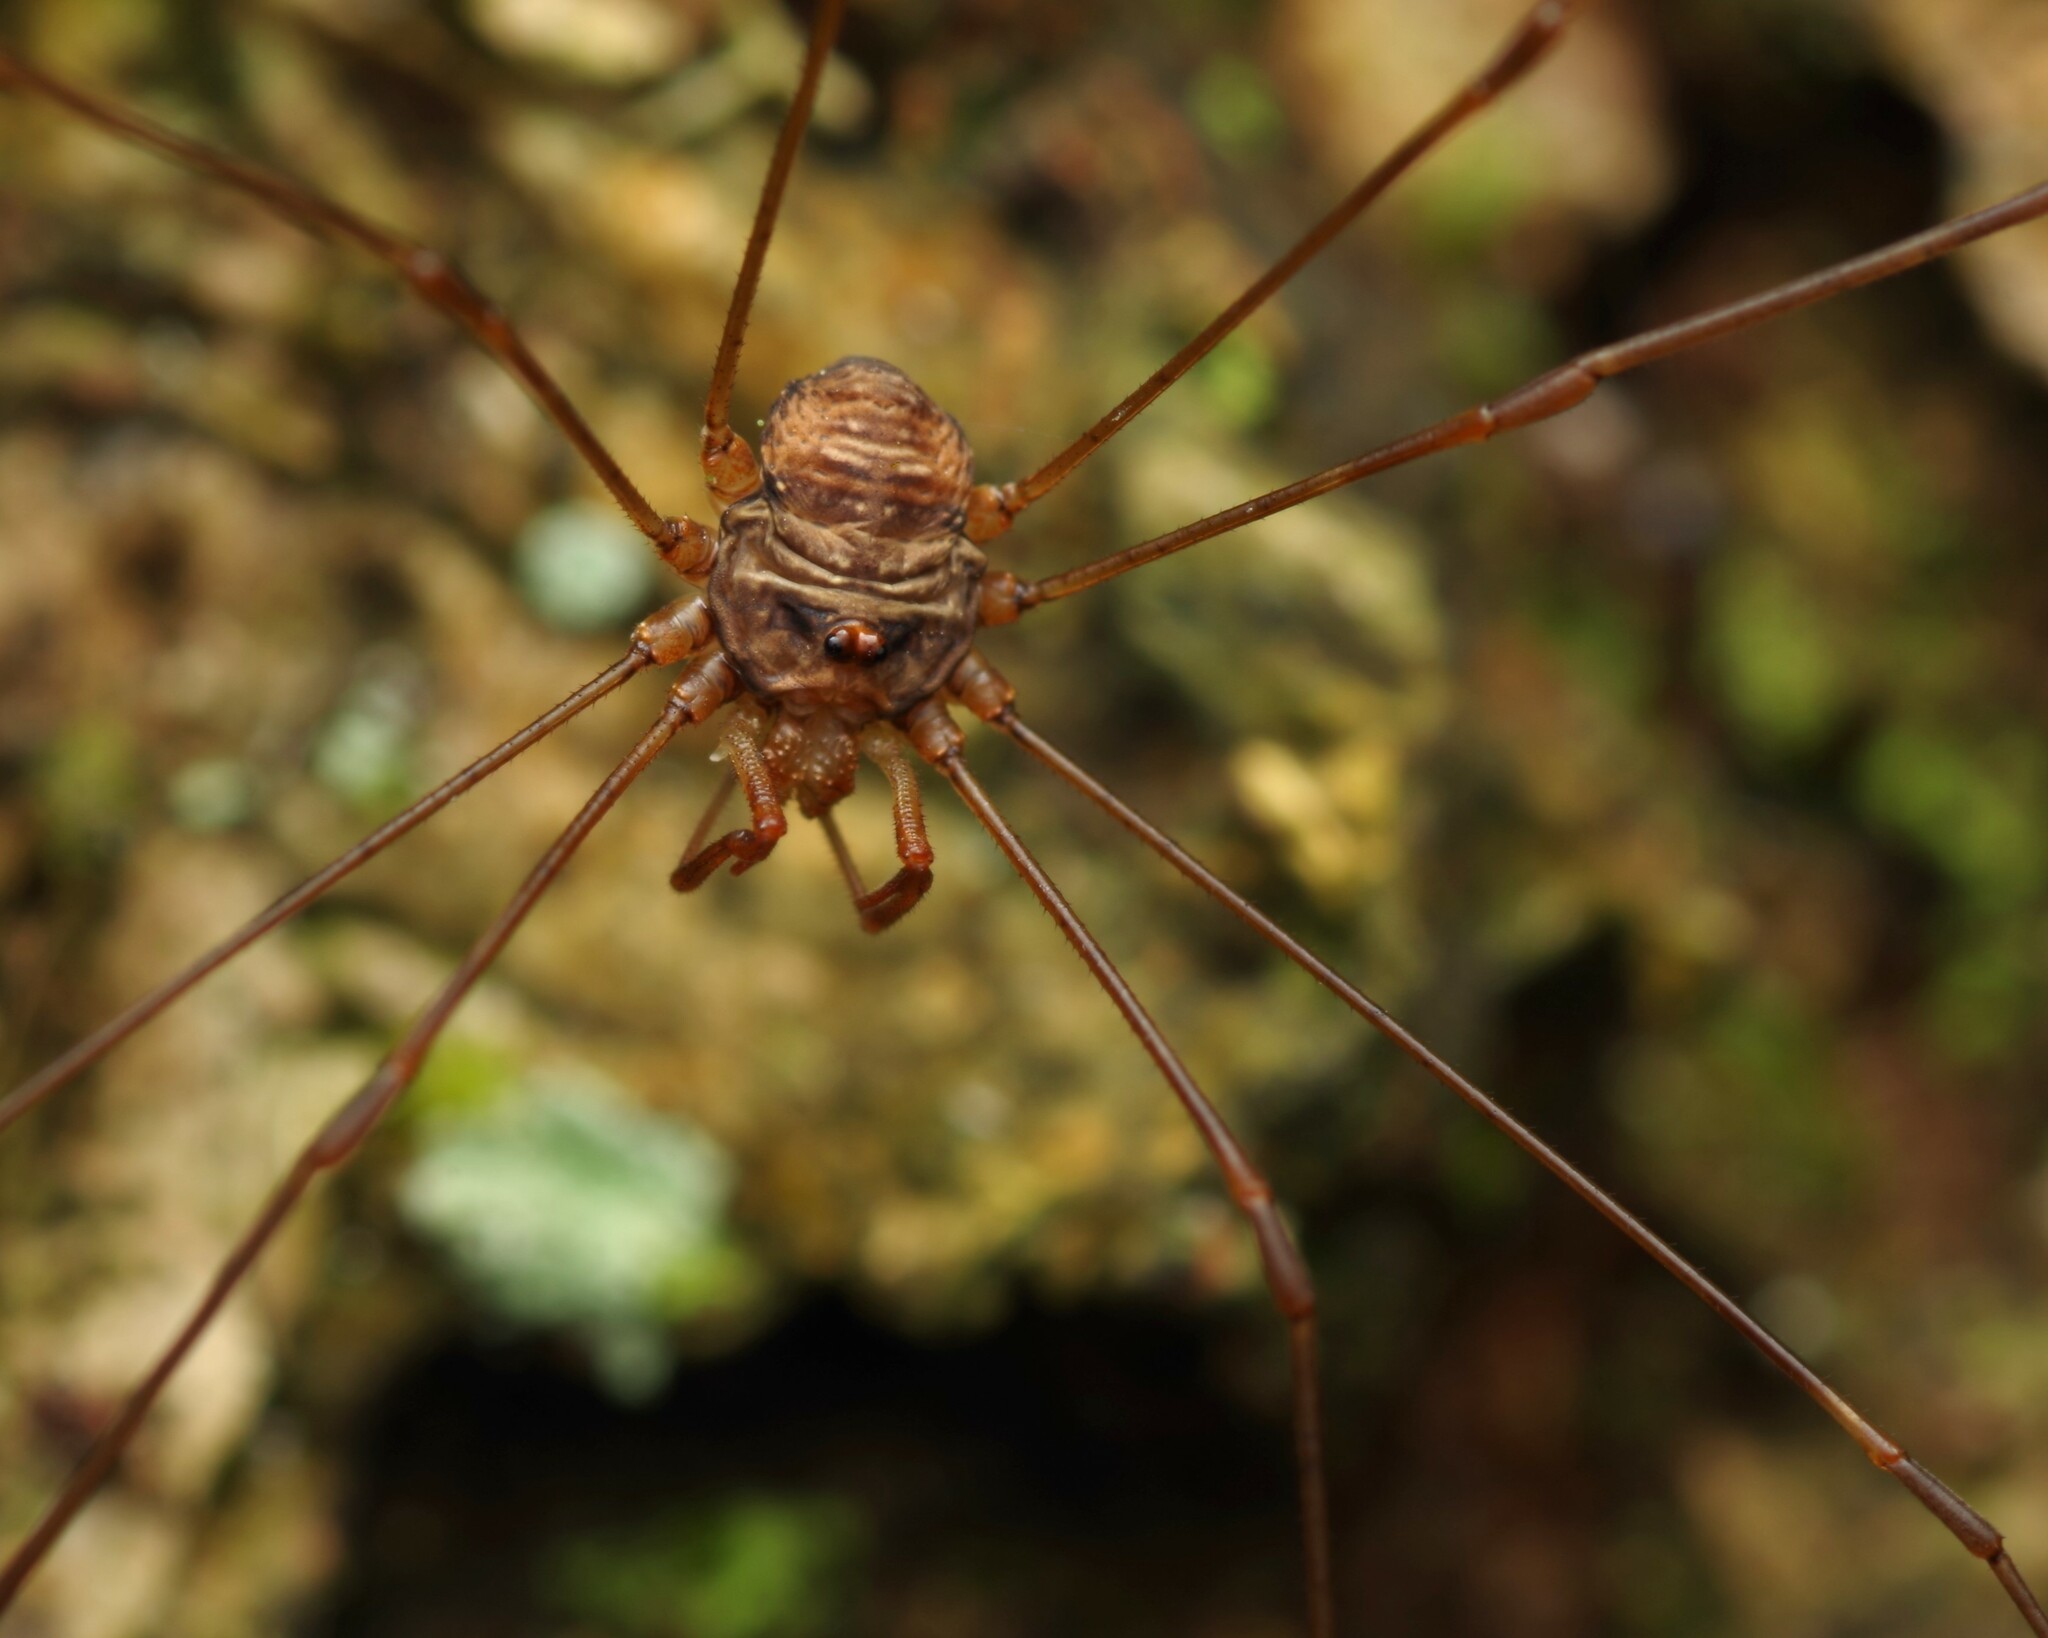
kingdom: Animalia
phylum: Arthropoda
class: Arachnida
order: Opiliones
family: Phalangiidae
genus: Dicranopalpus
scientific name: Dicranopalpus ramosus
